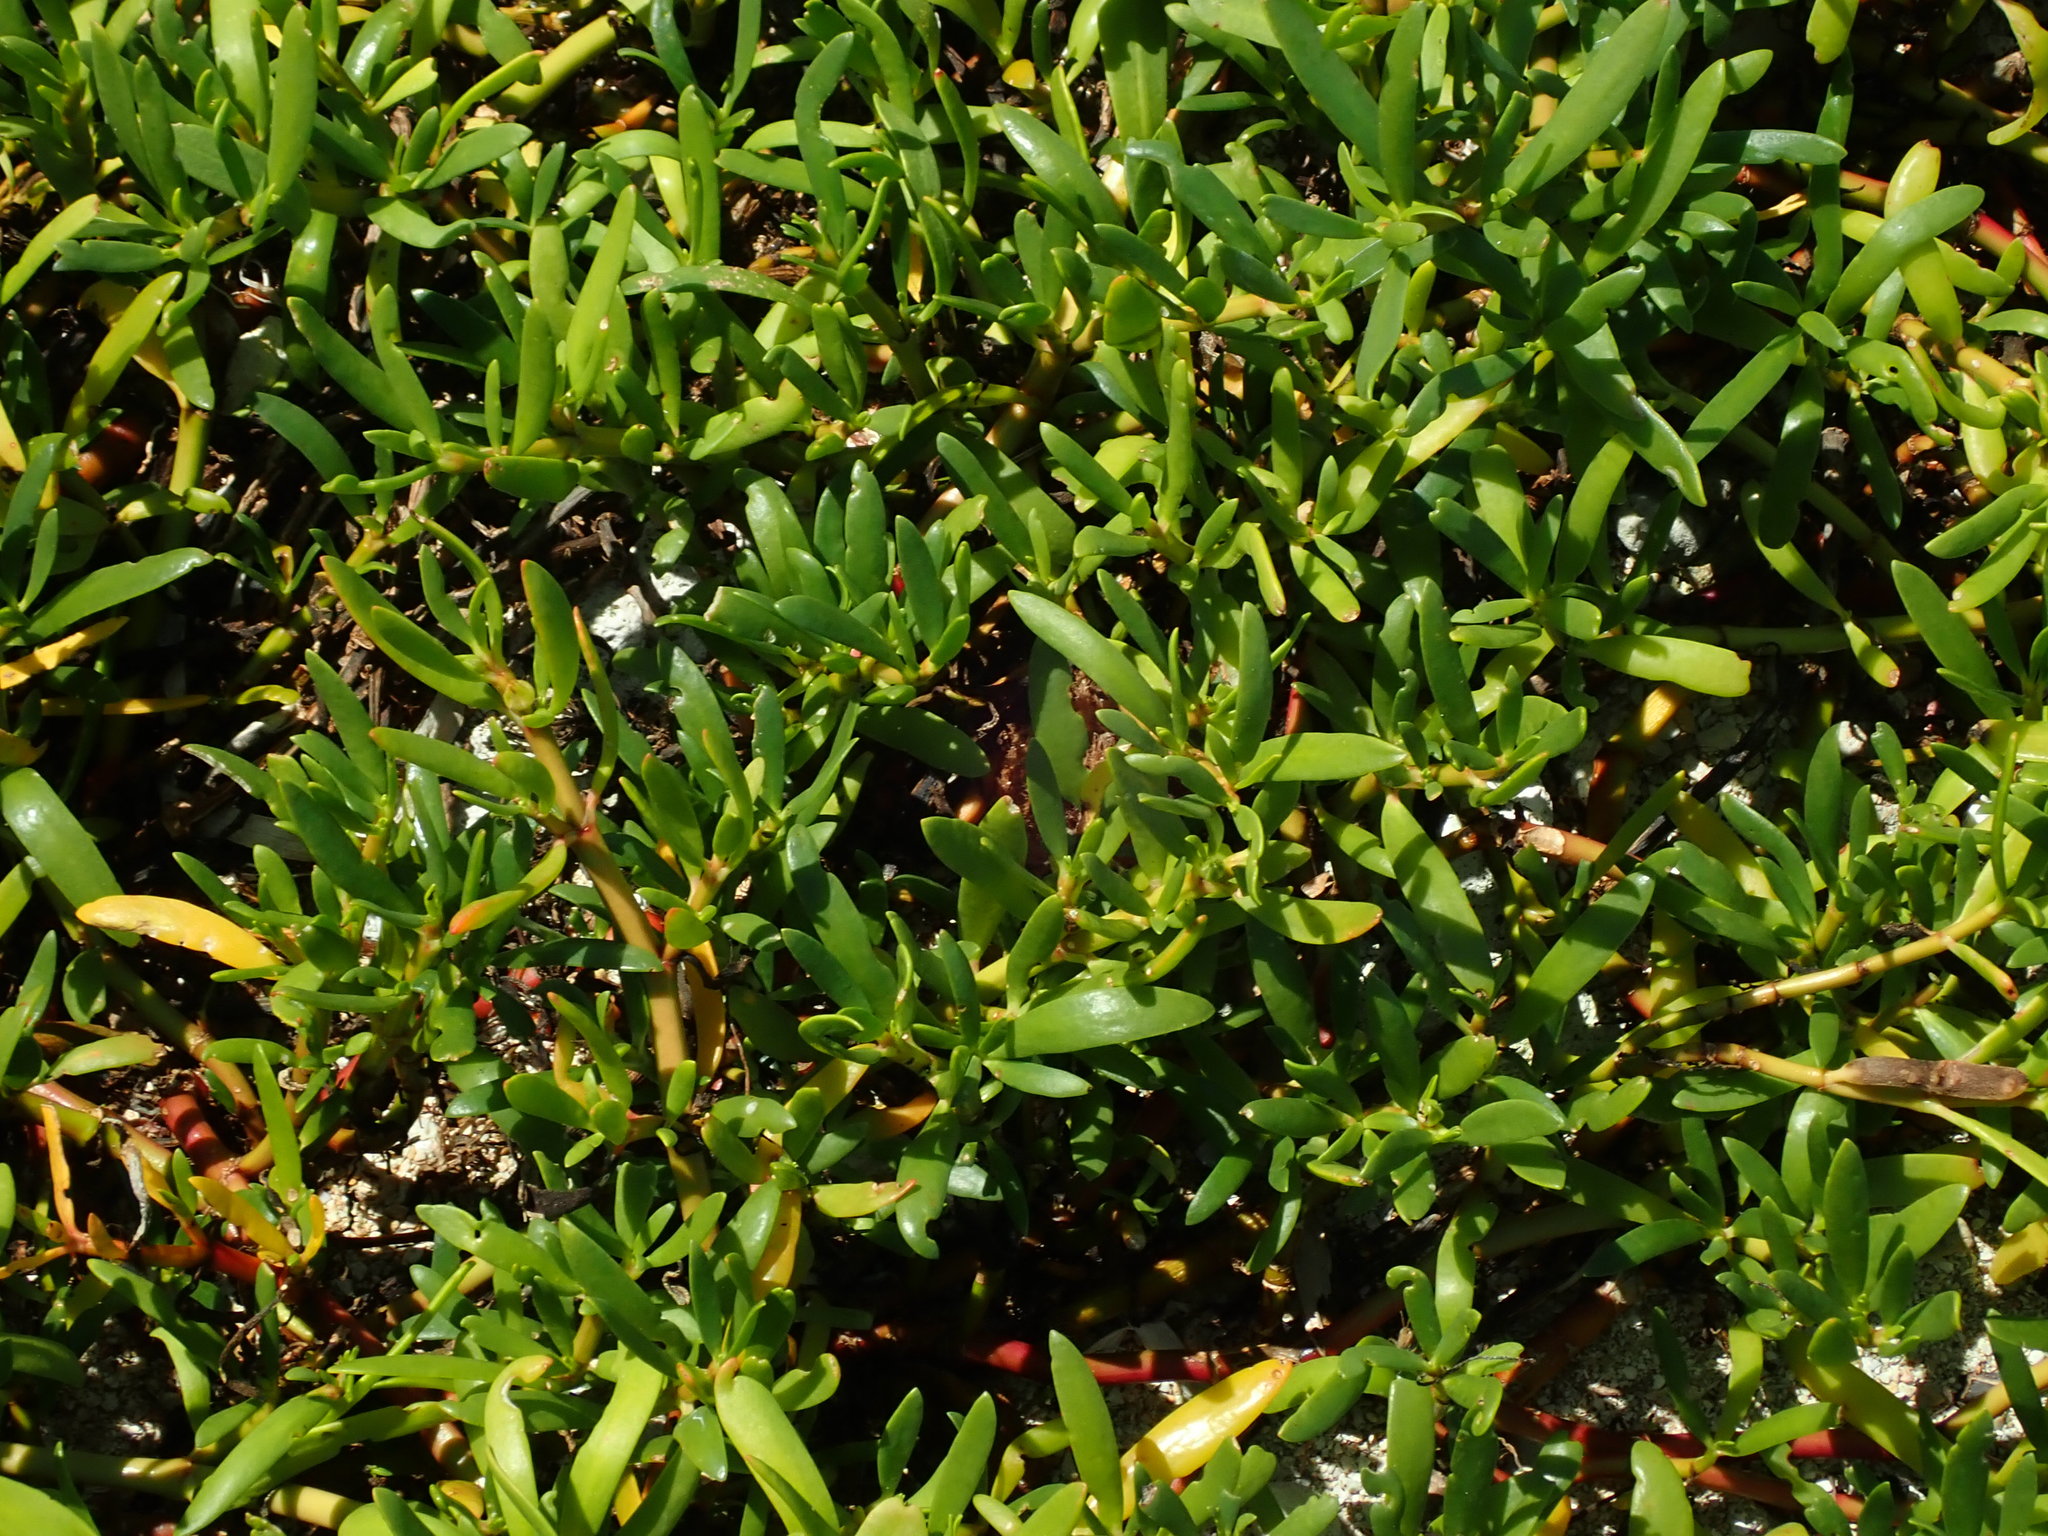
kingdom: Plantae
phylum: Tracheophyta
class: Magnoliopsida
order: Caryophyllales
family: Aizoaceae
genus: Sesuvium
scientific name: Sesuvium portulacastrum
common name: Sea-purslane
